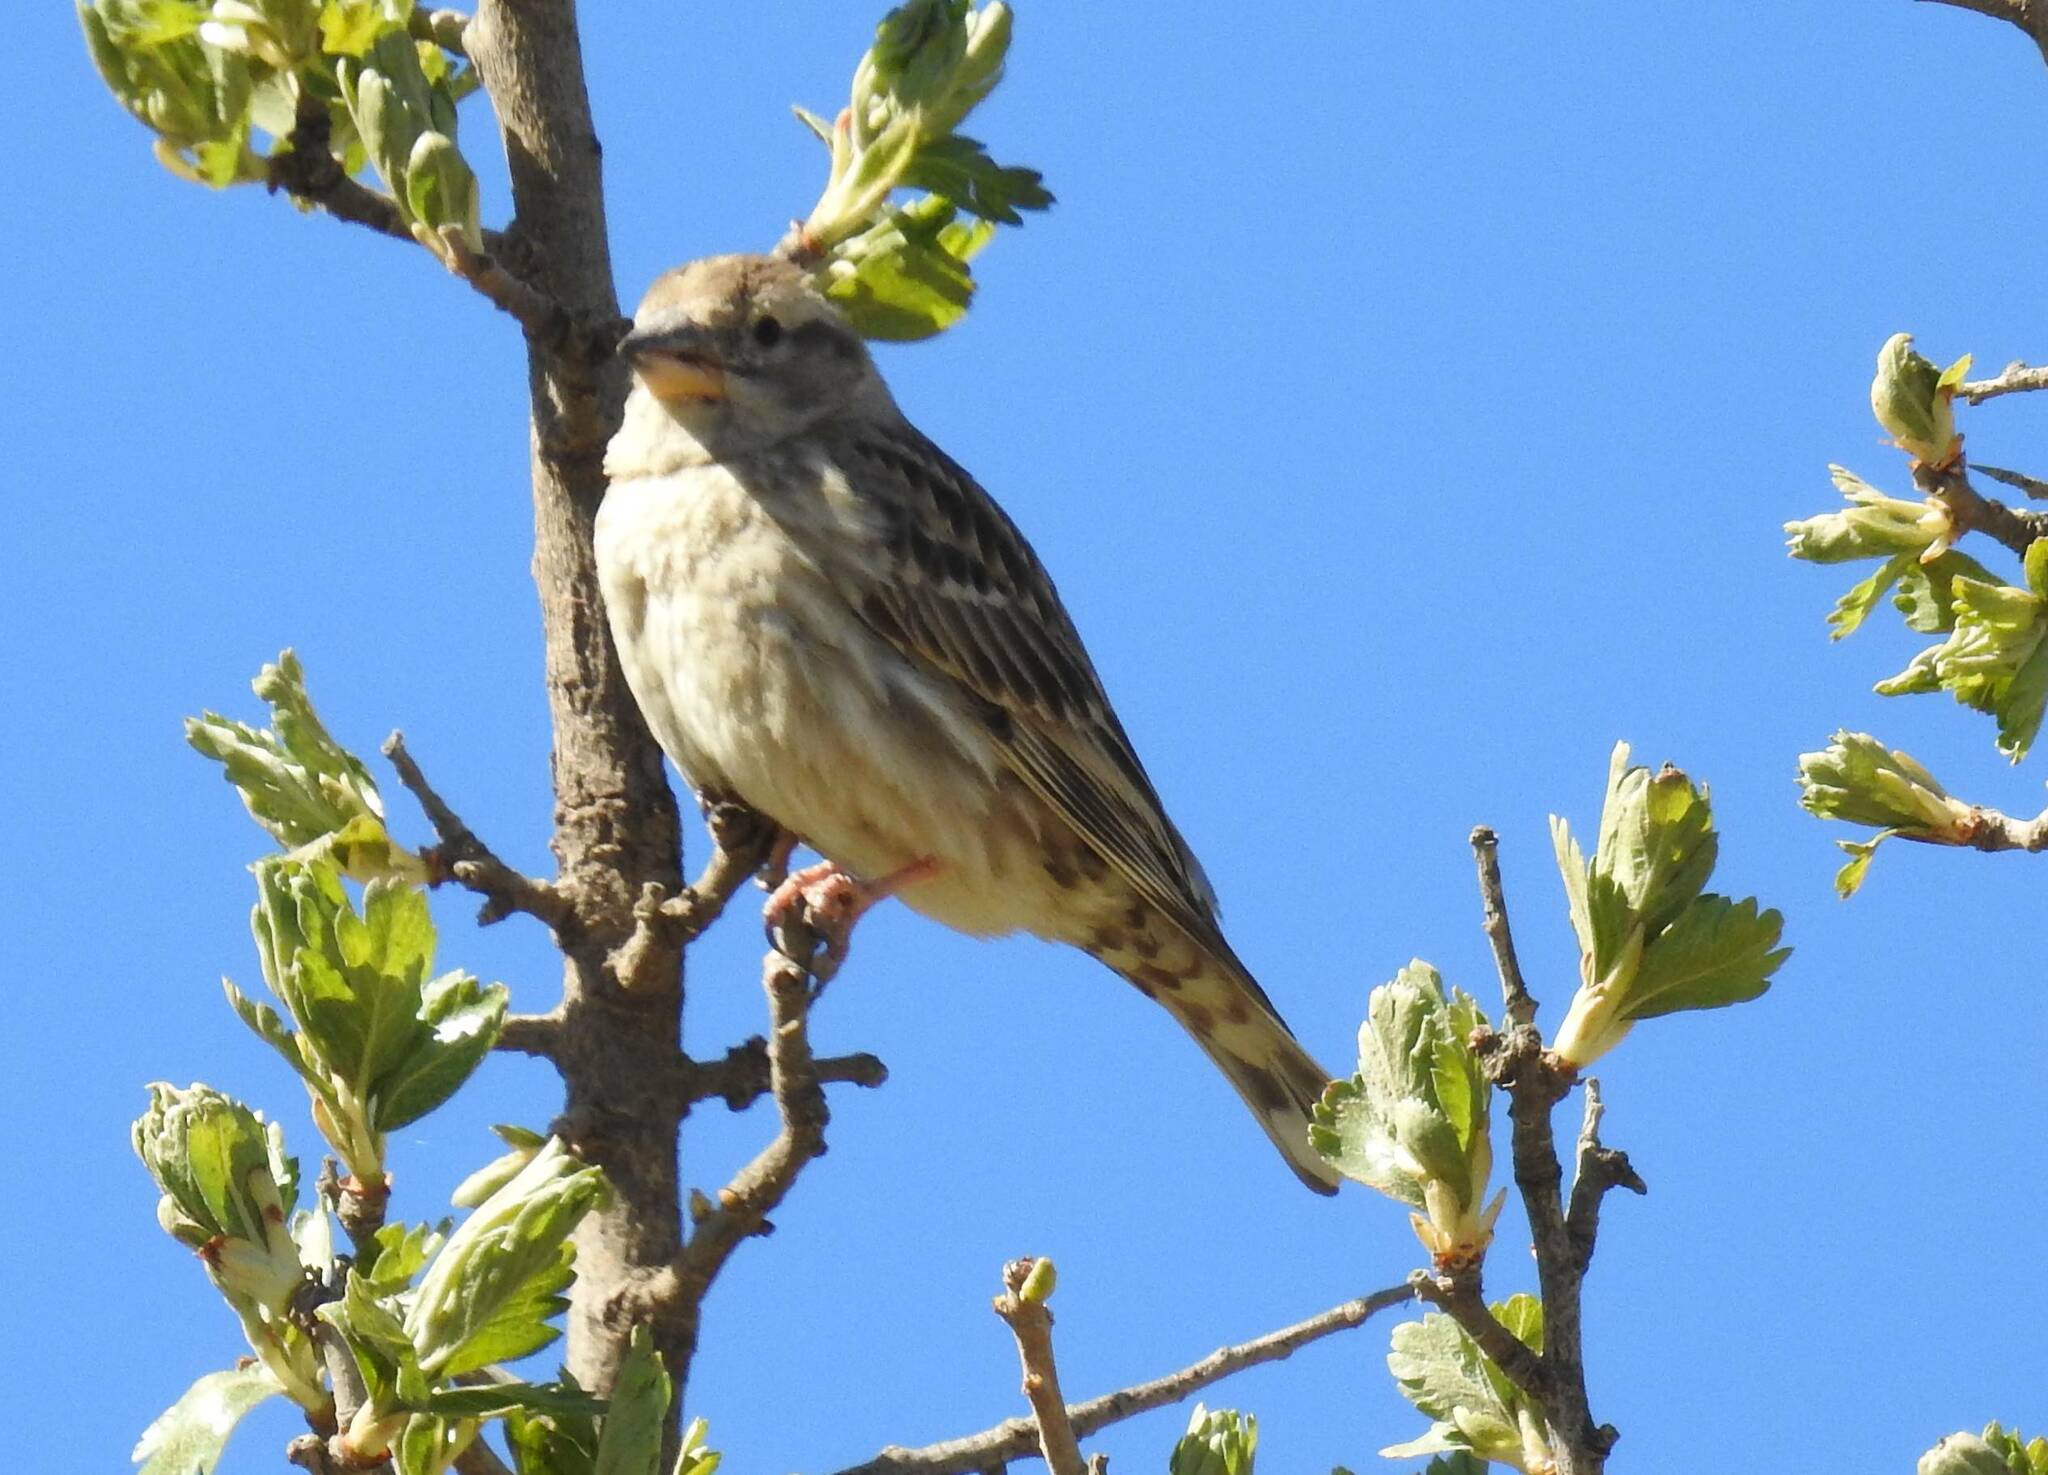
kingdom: Animalia
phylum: Chordata
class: Aves
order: Passeriformes
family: Passeridae
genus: Petronia
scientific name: Petronia petronia
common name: Rock sparrow
